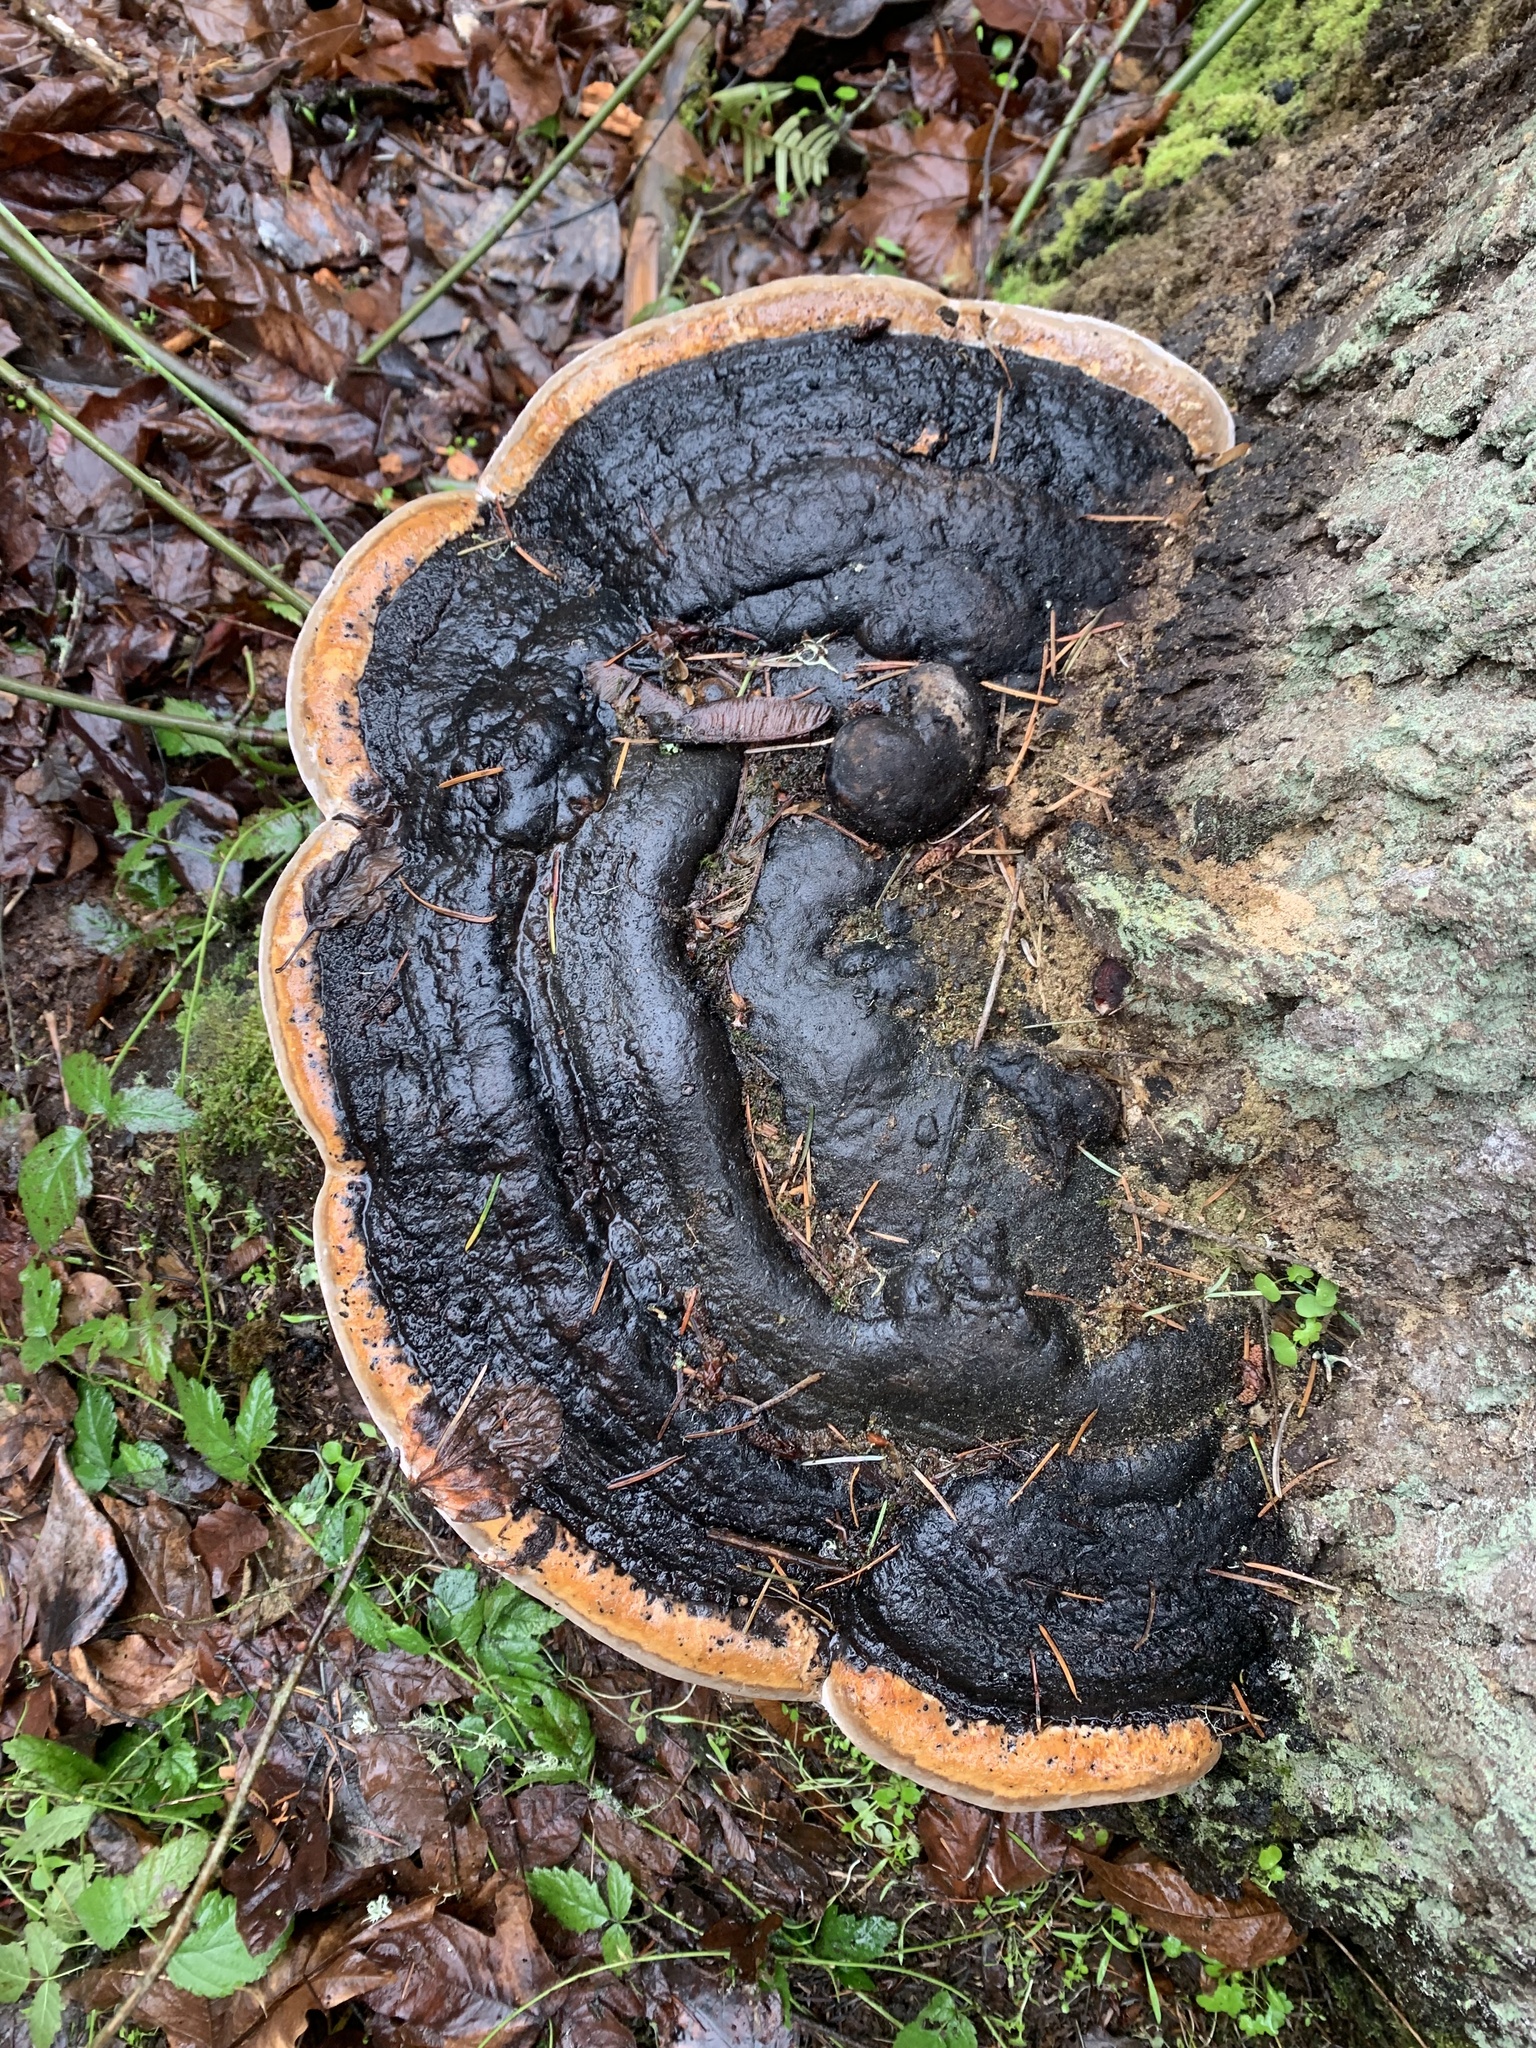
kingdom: Fungi
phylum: Basidiomycota
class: Agaricomycetes
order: Polyporales
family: Fomitopsidaceae
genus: Fomitopsis
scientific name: Fomitopsis mounceae
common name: Northern red belt
